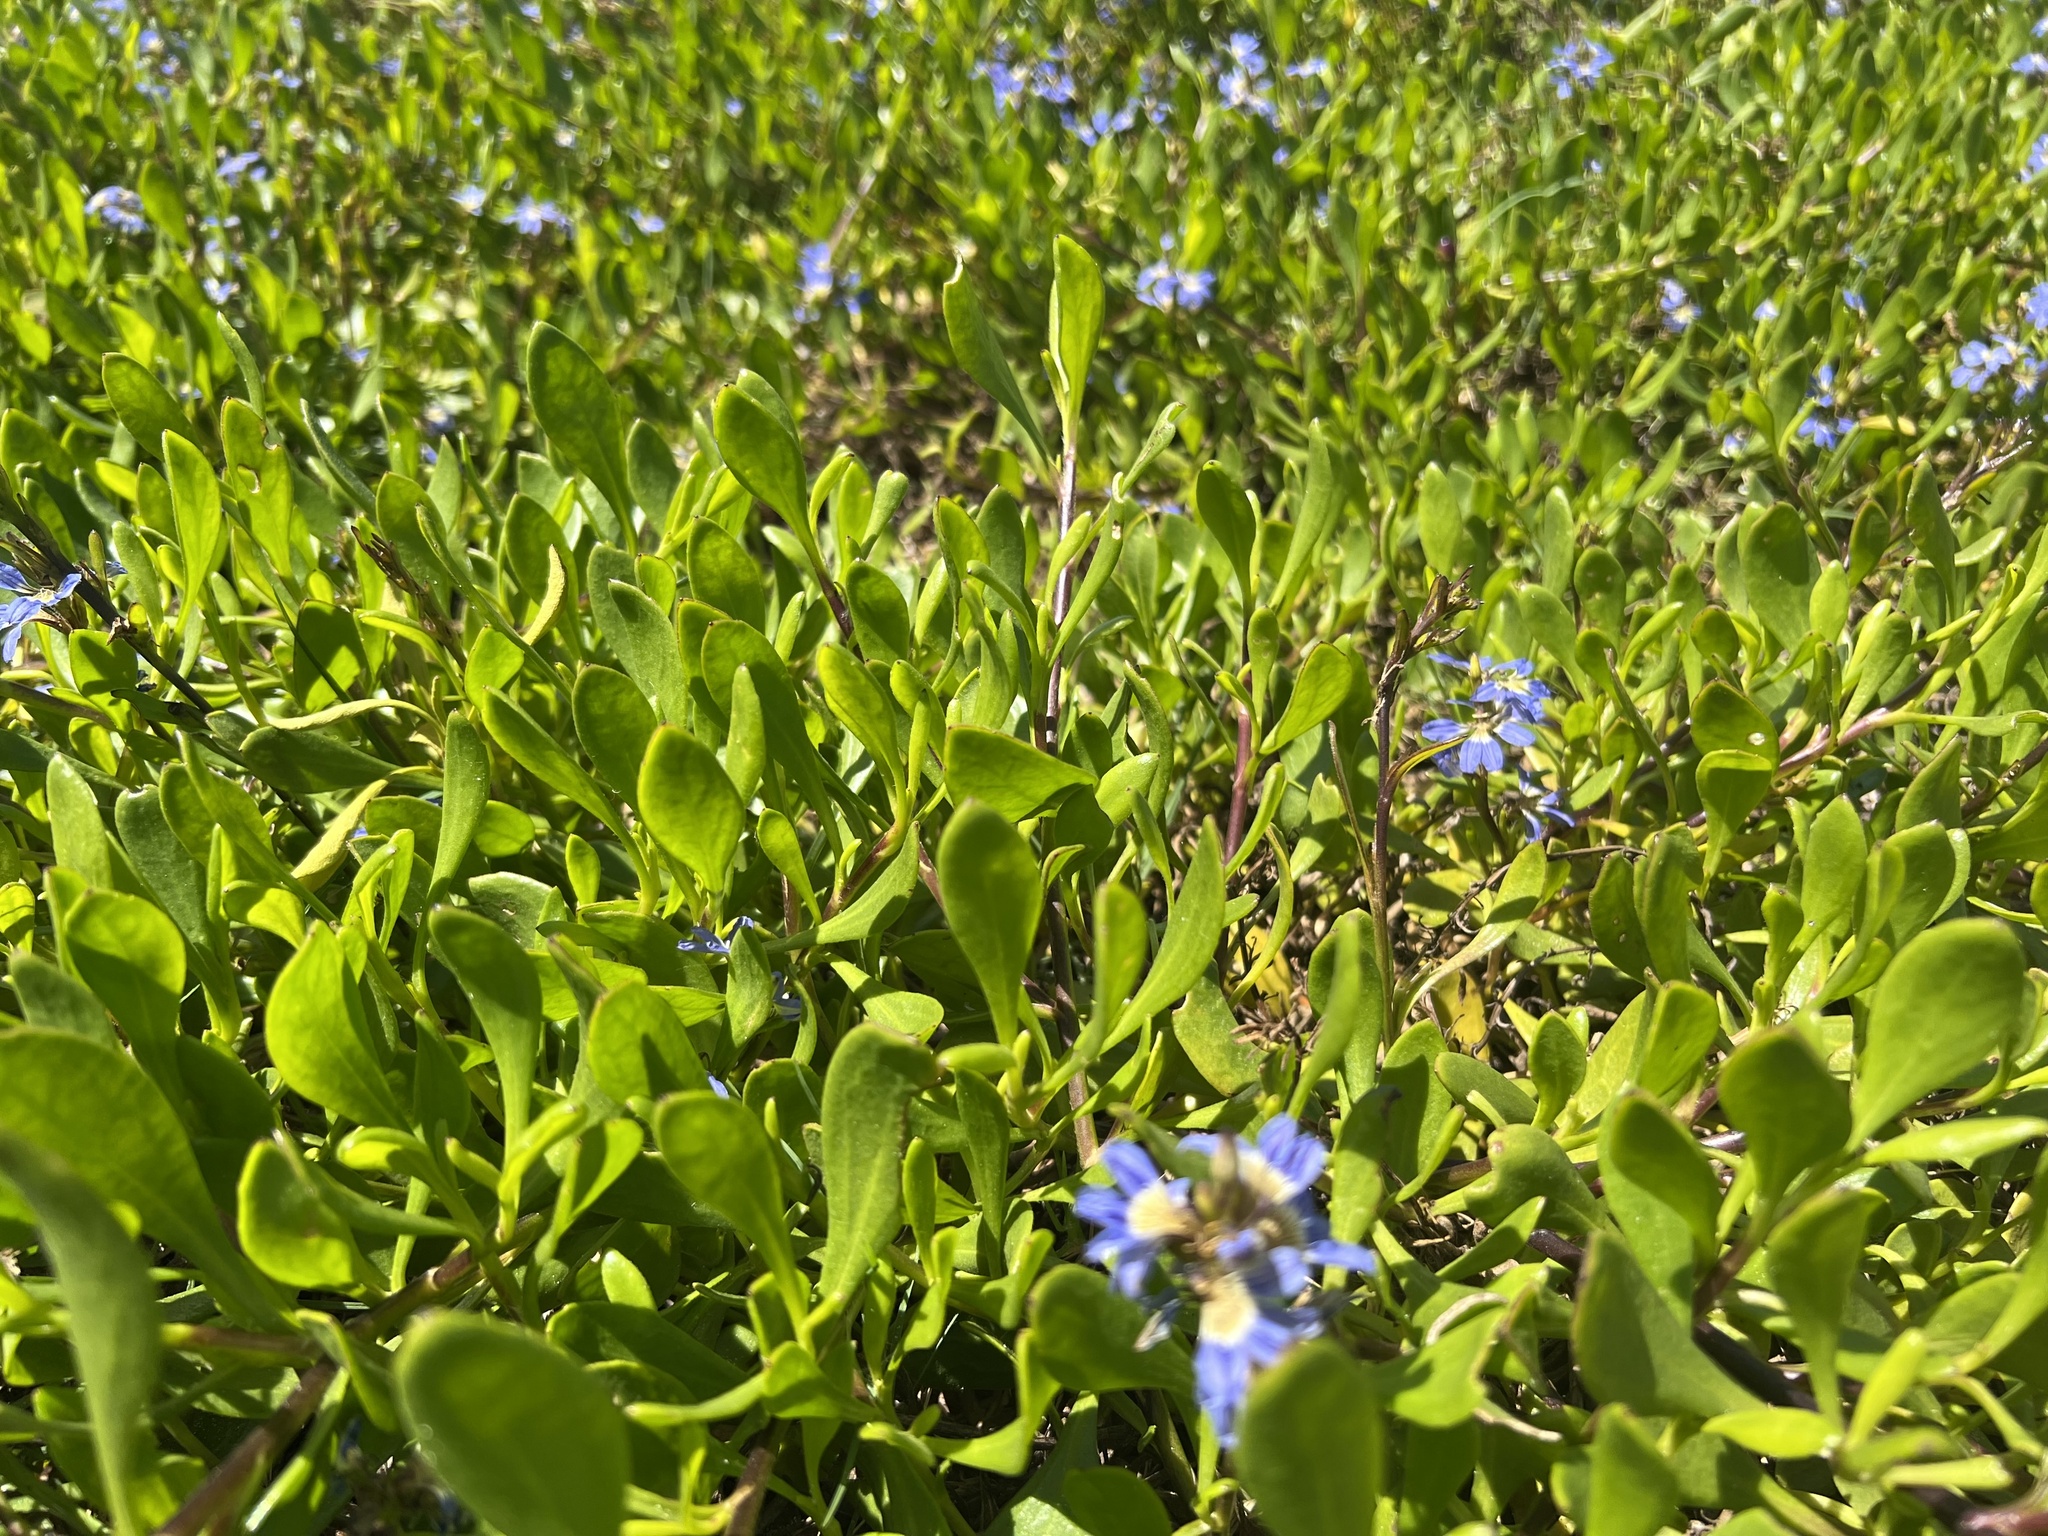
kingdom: Plantae
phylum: Tracheophyta
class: Magnoliopsida
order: Asterales
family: Goodeniaceae
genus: Scaevola
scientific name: Scaevola calendulacea
